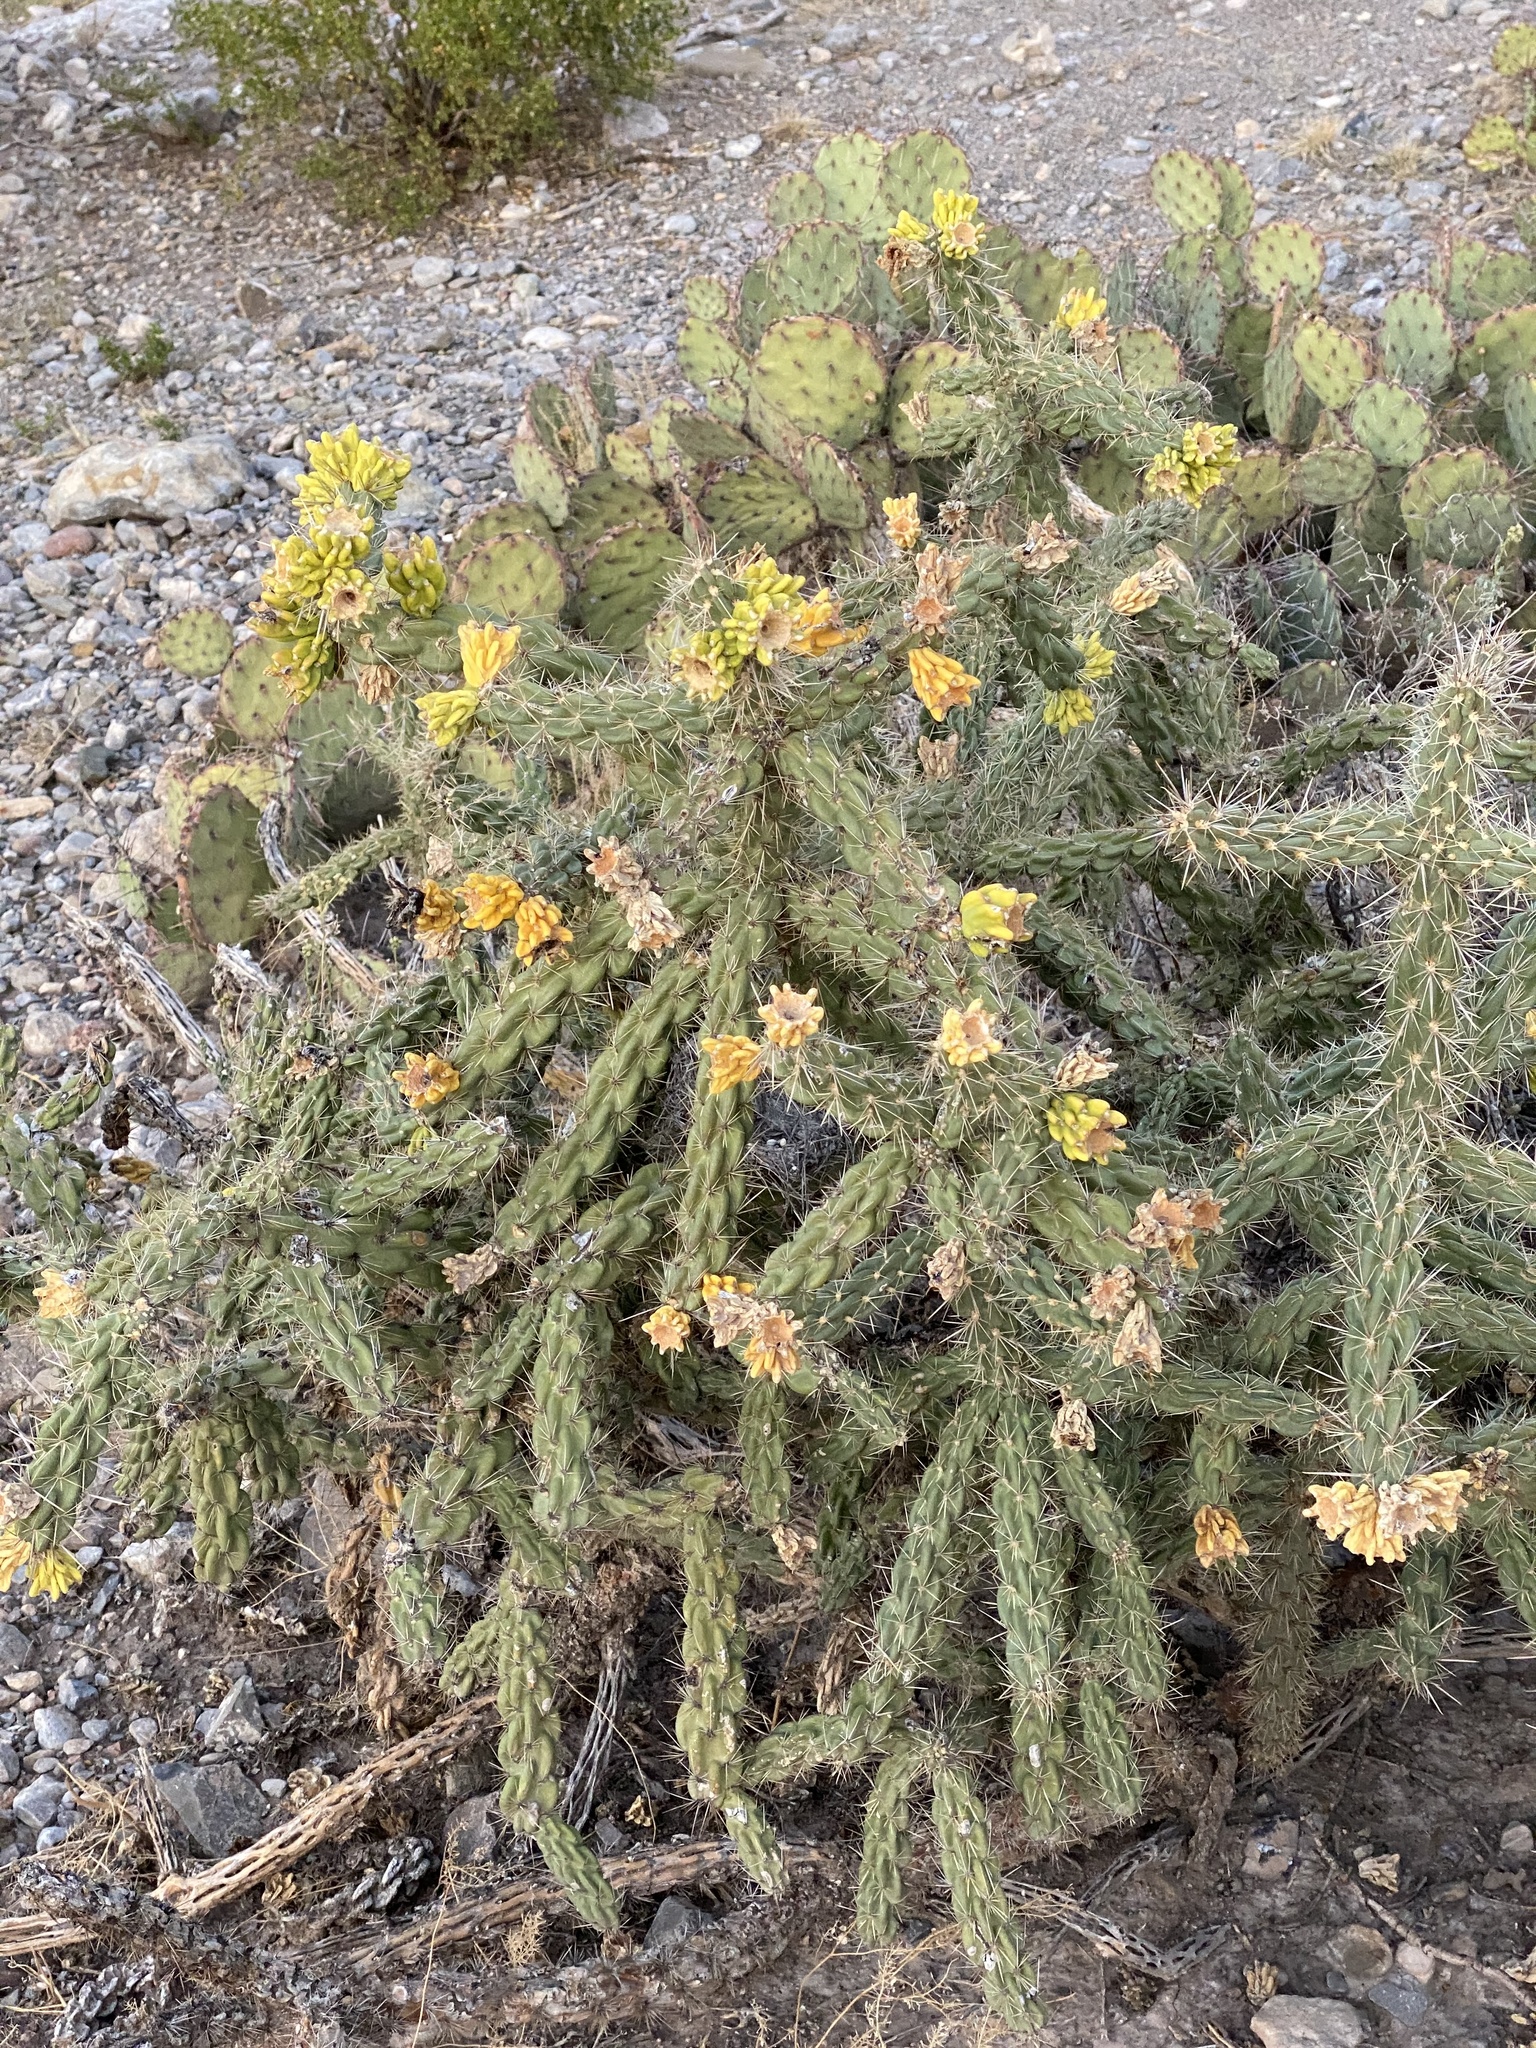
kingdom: Plantae
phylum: Tracheophyta
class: Magnoliopsida
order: Caryophyllales
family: Cactaceae
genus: Cylindropuntia
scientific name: Cylindropuntia imbricata
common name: Candelabrum cactus
